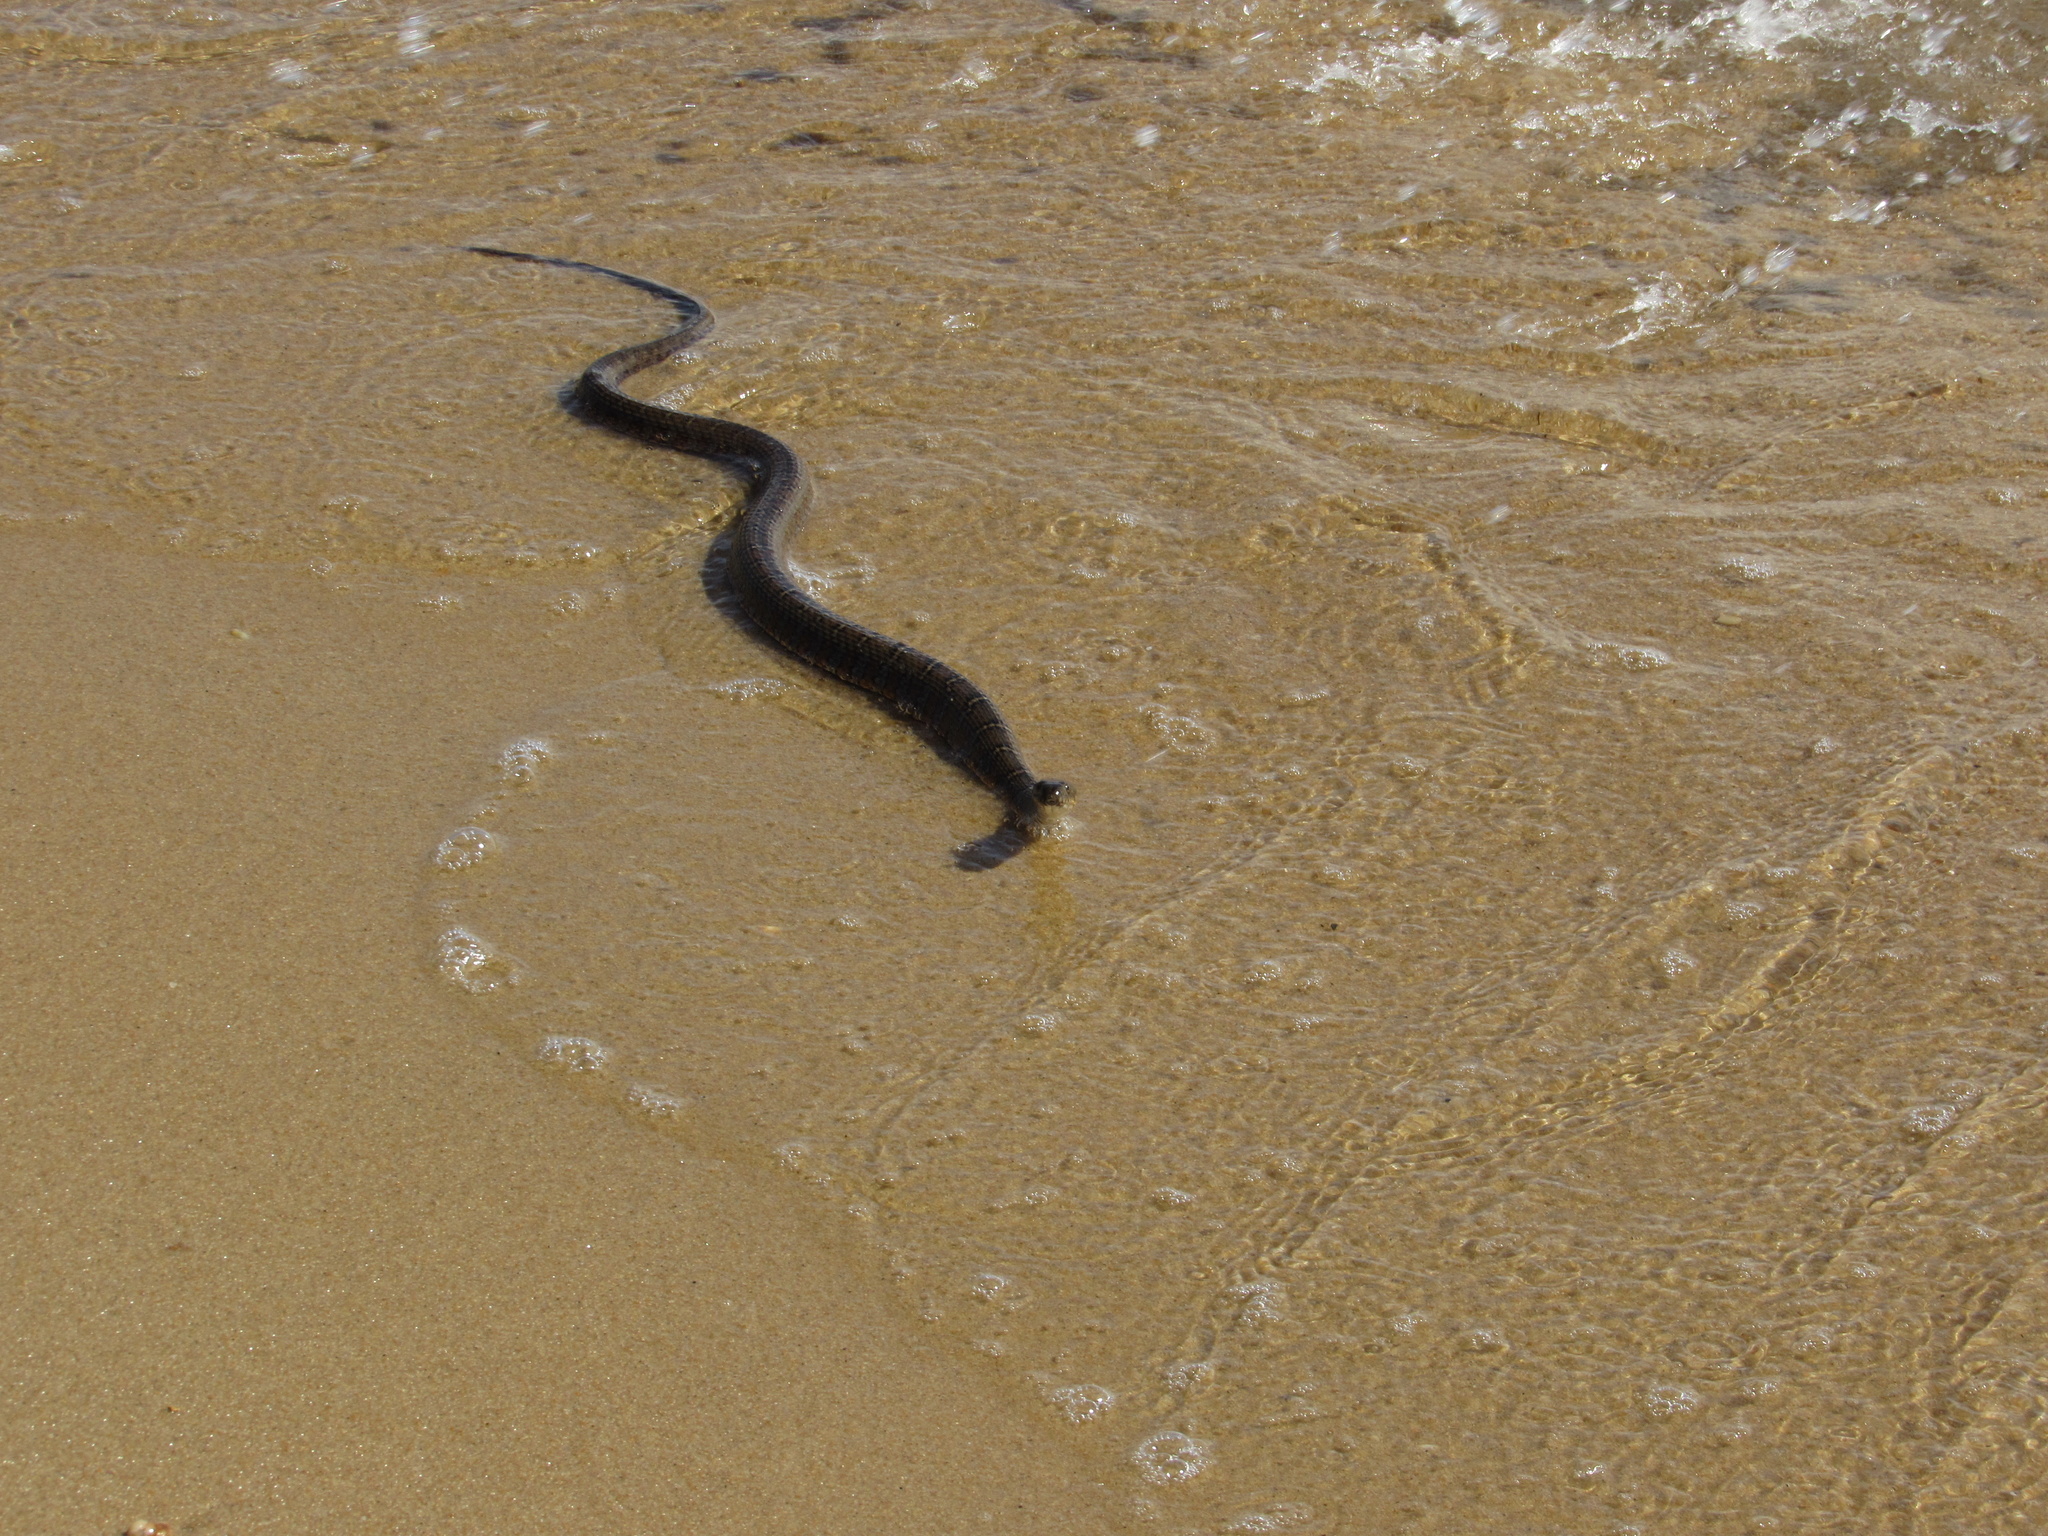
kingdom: Animalia
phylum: Chordata
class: Squamata
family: Colubridae
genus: Nerodia
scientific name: Nerodia sipedon
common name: Northern water snake
